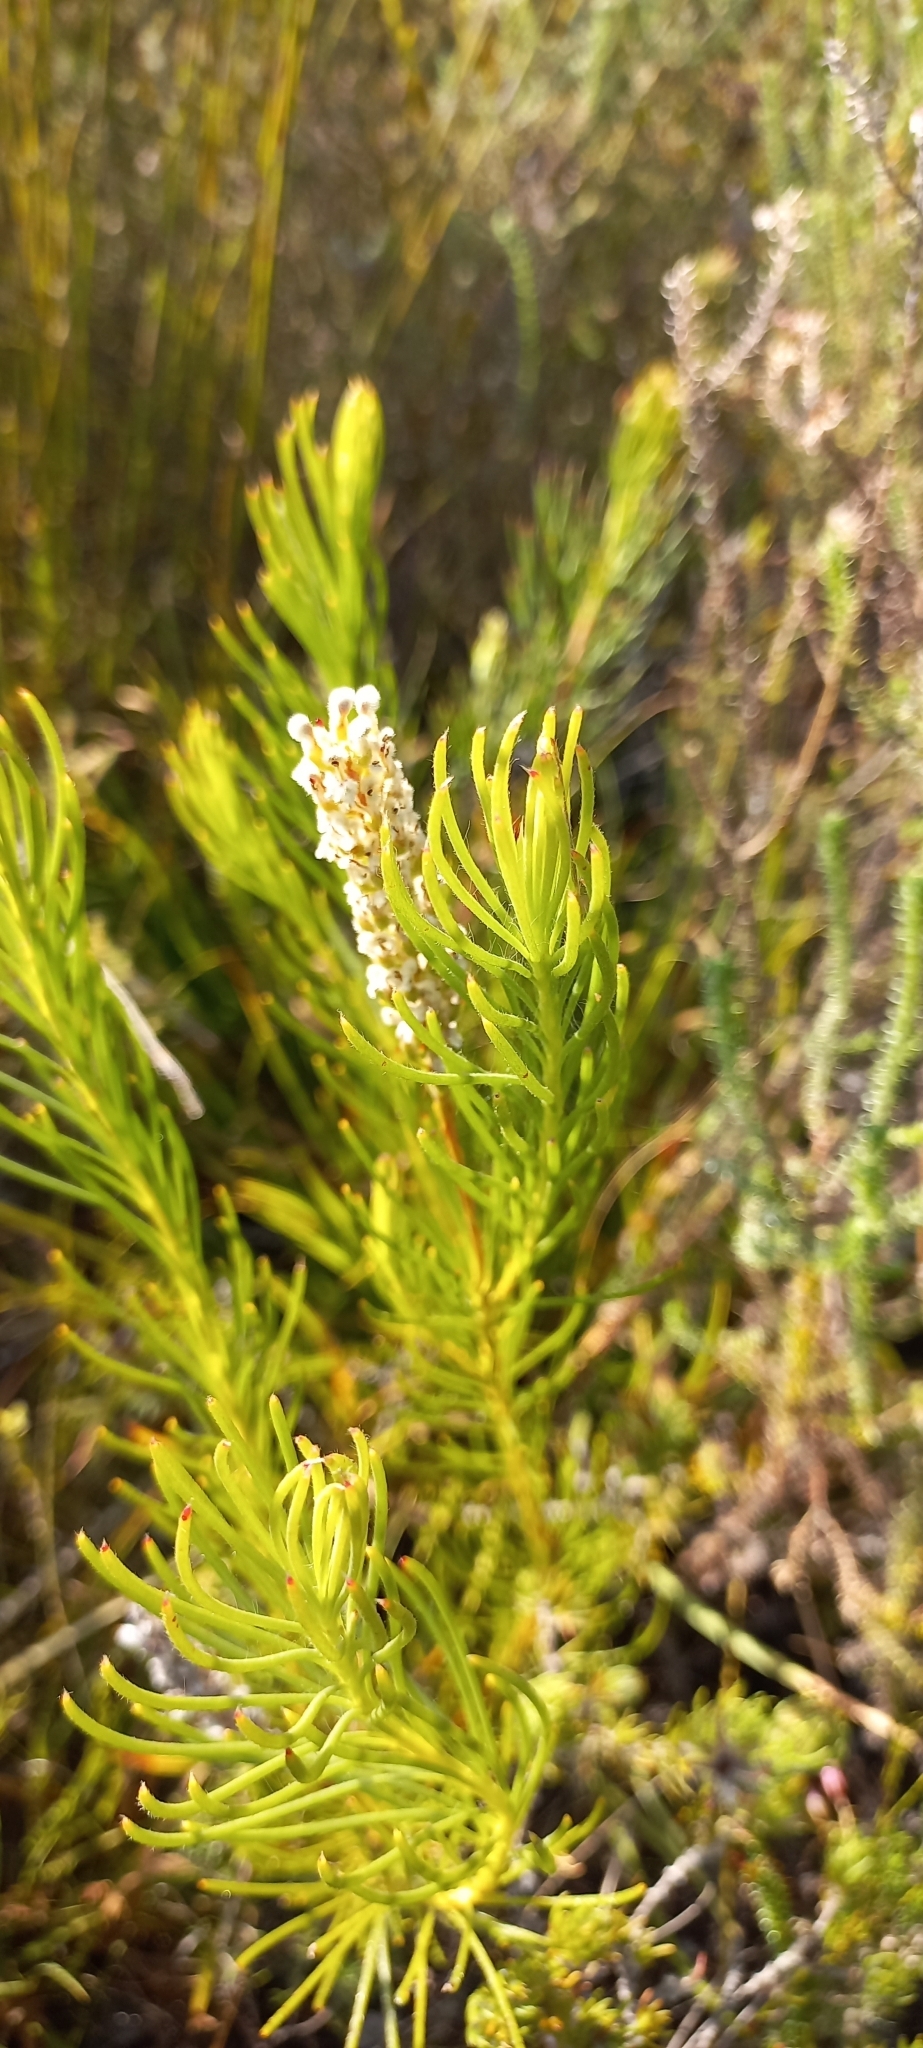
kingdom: Plantae
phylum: Tracheophyta
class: Magnoliopsida
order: Proteales
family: Proteaceae
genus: Spatalla
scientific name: Spatalla curvifolia
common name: White-stalked spoon
